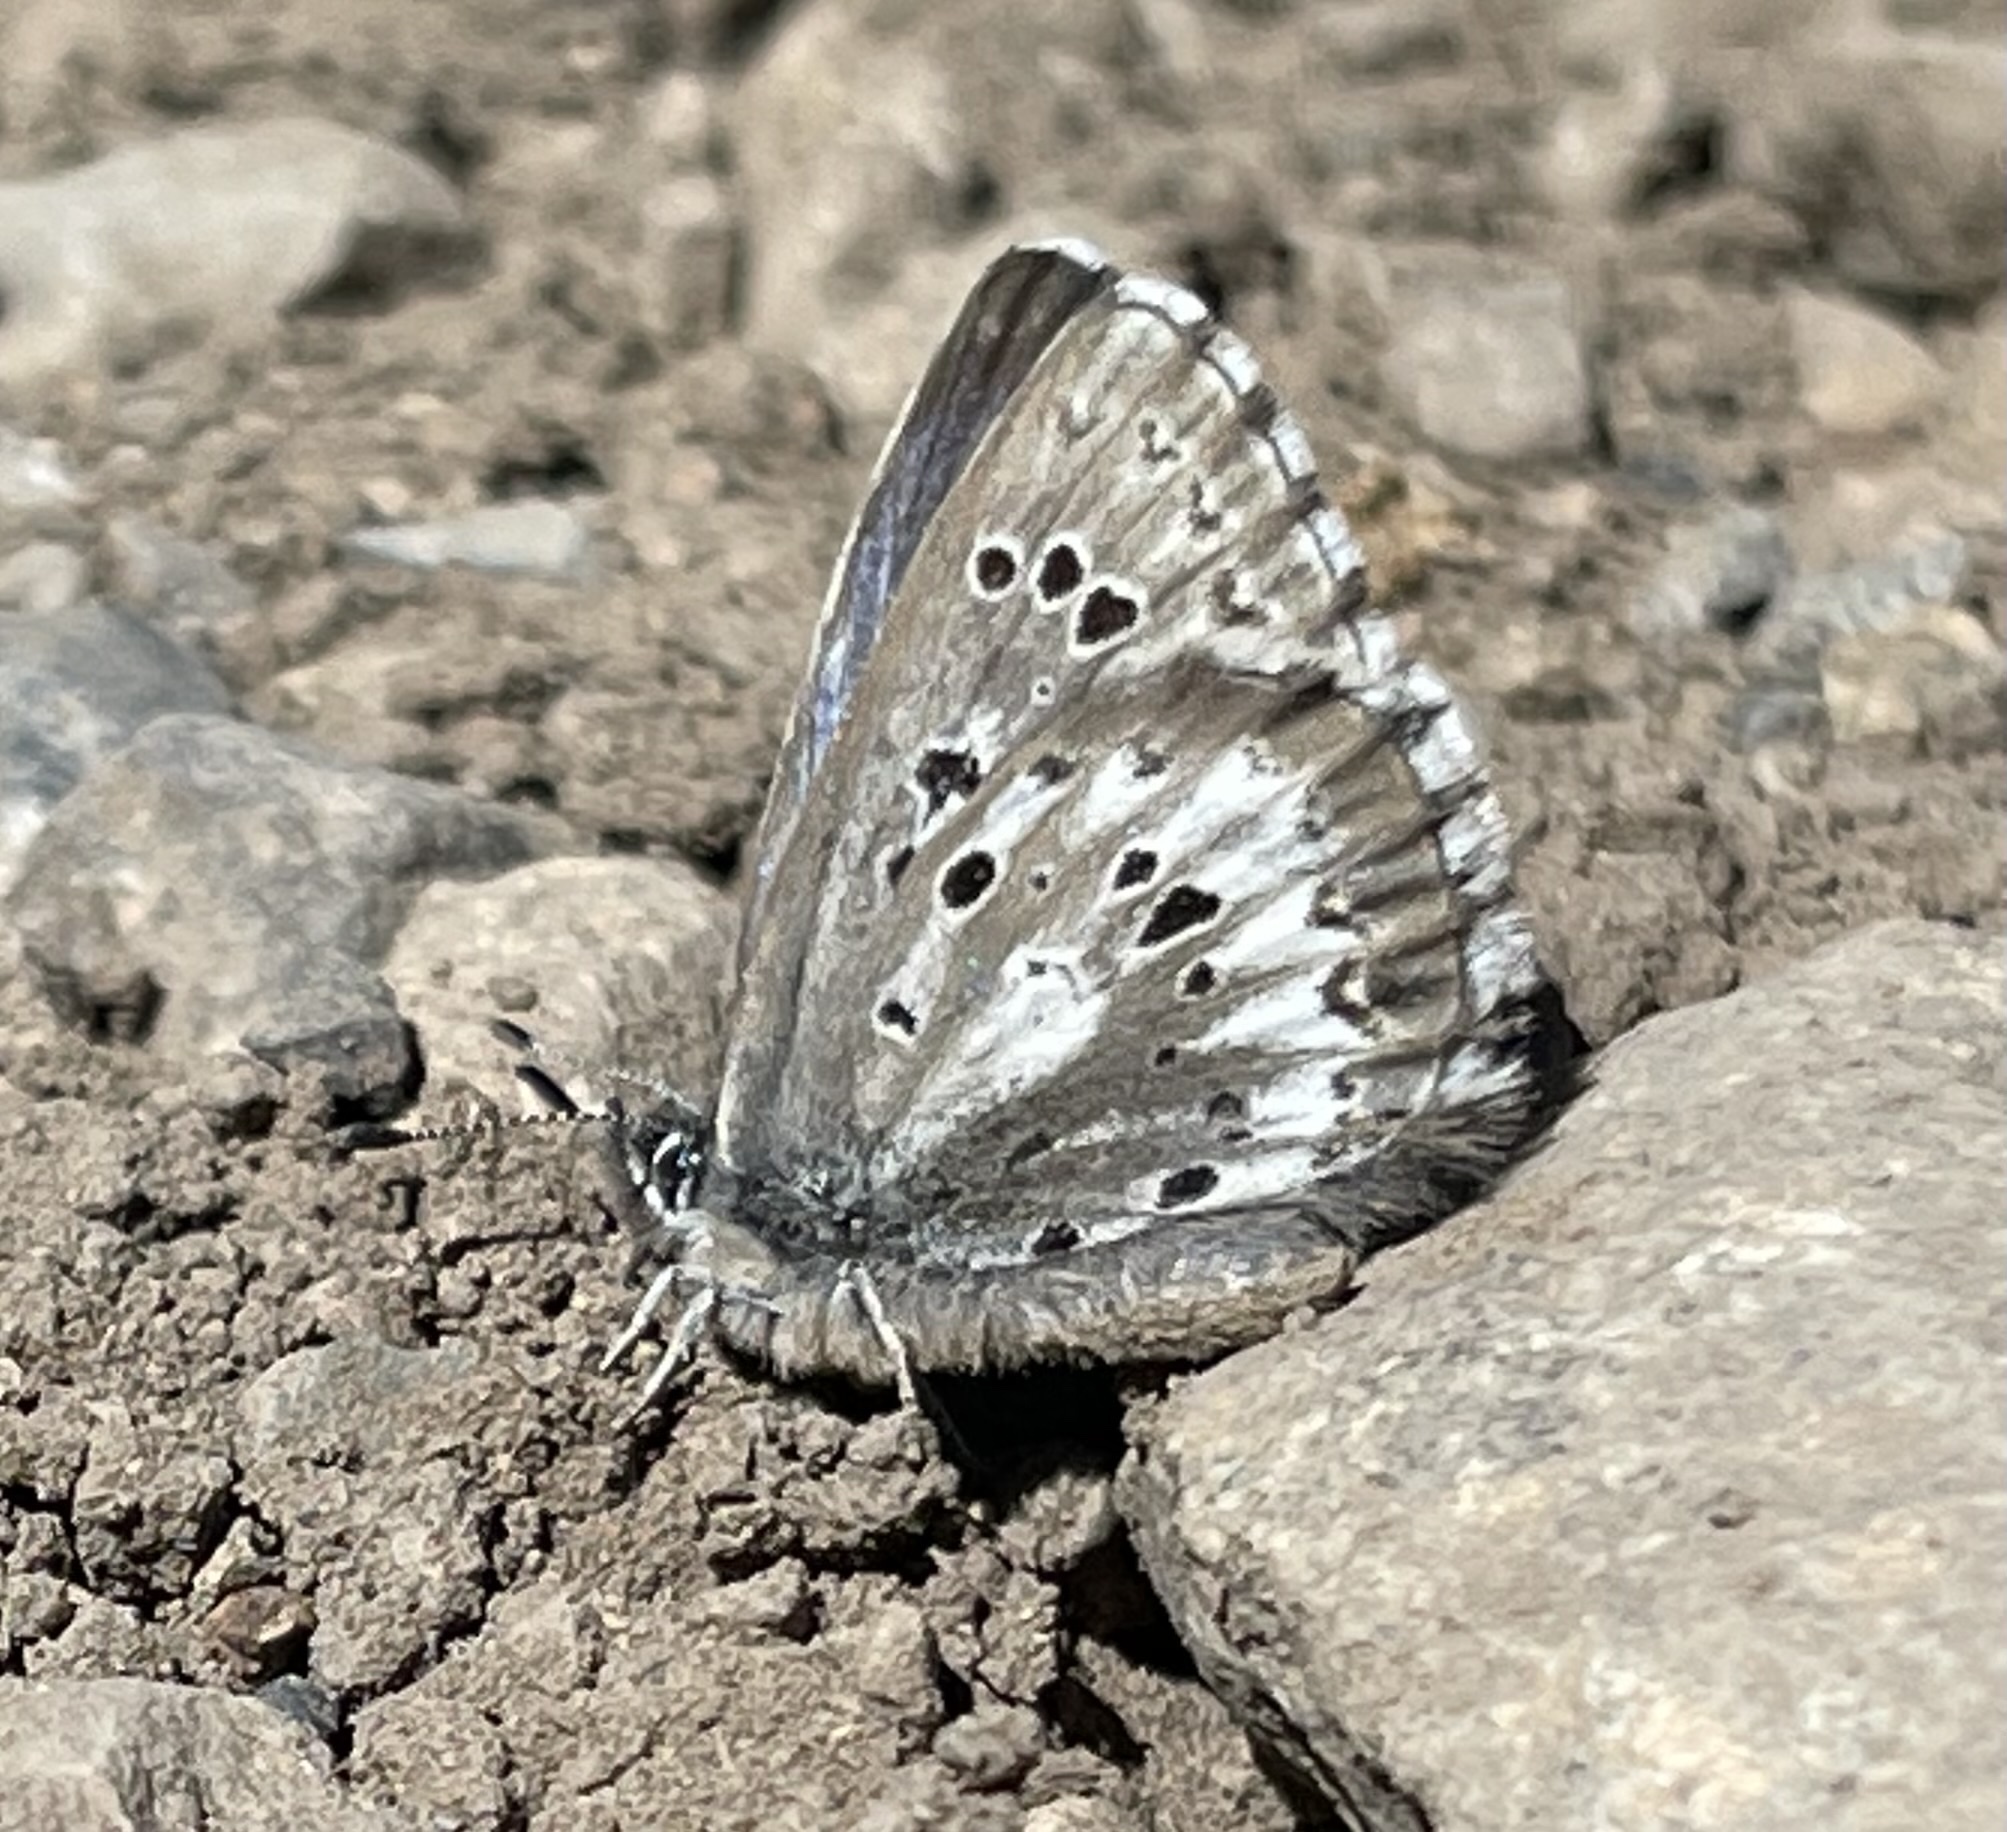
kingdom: Animalia
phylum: Arthropoda
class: Insecta
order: Lepidoptera
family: Lycaenidae
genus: Glaucopsyche
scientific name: Glaucopsyche piasus
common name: Arrowhead blue
